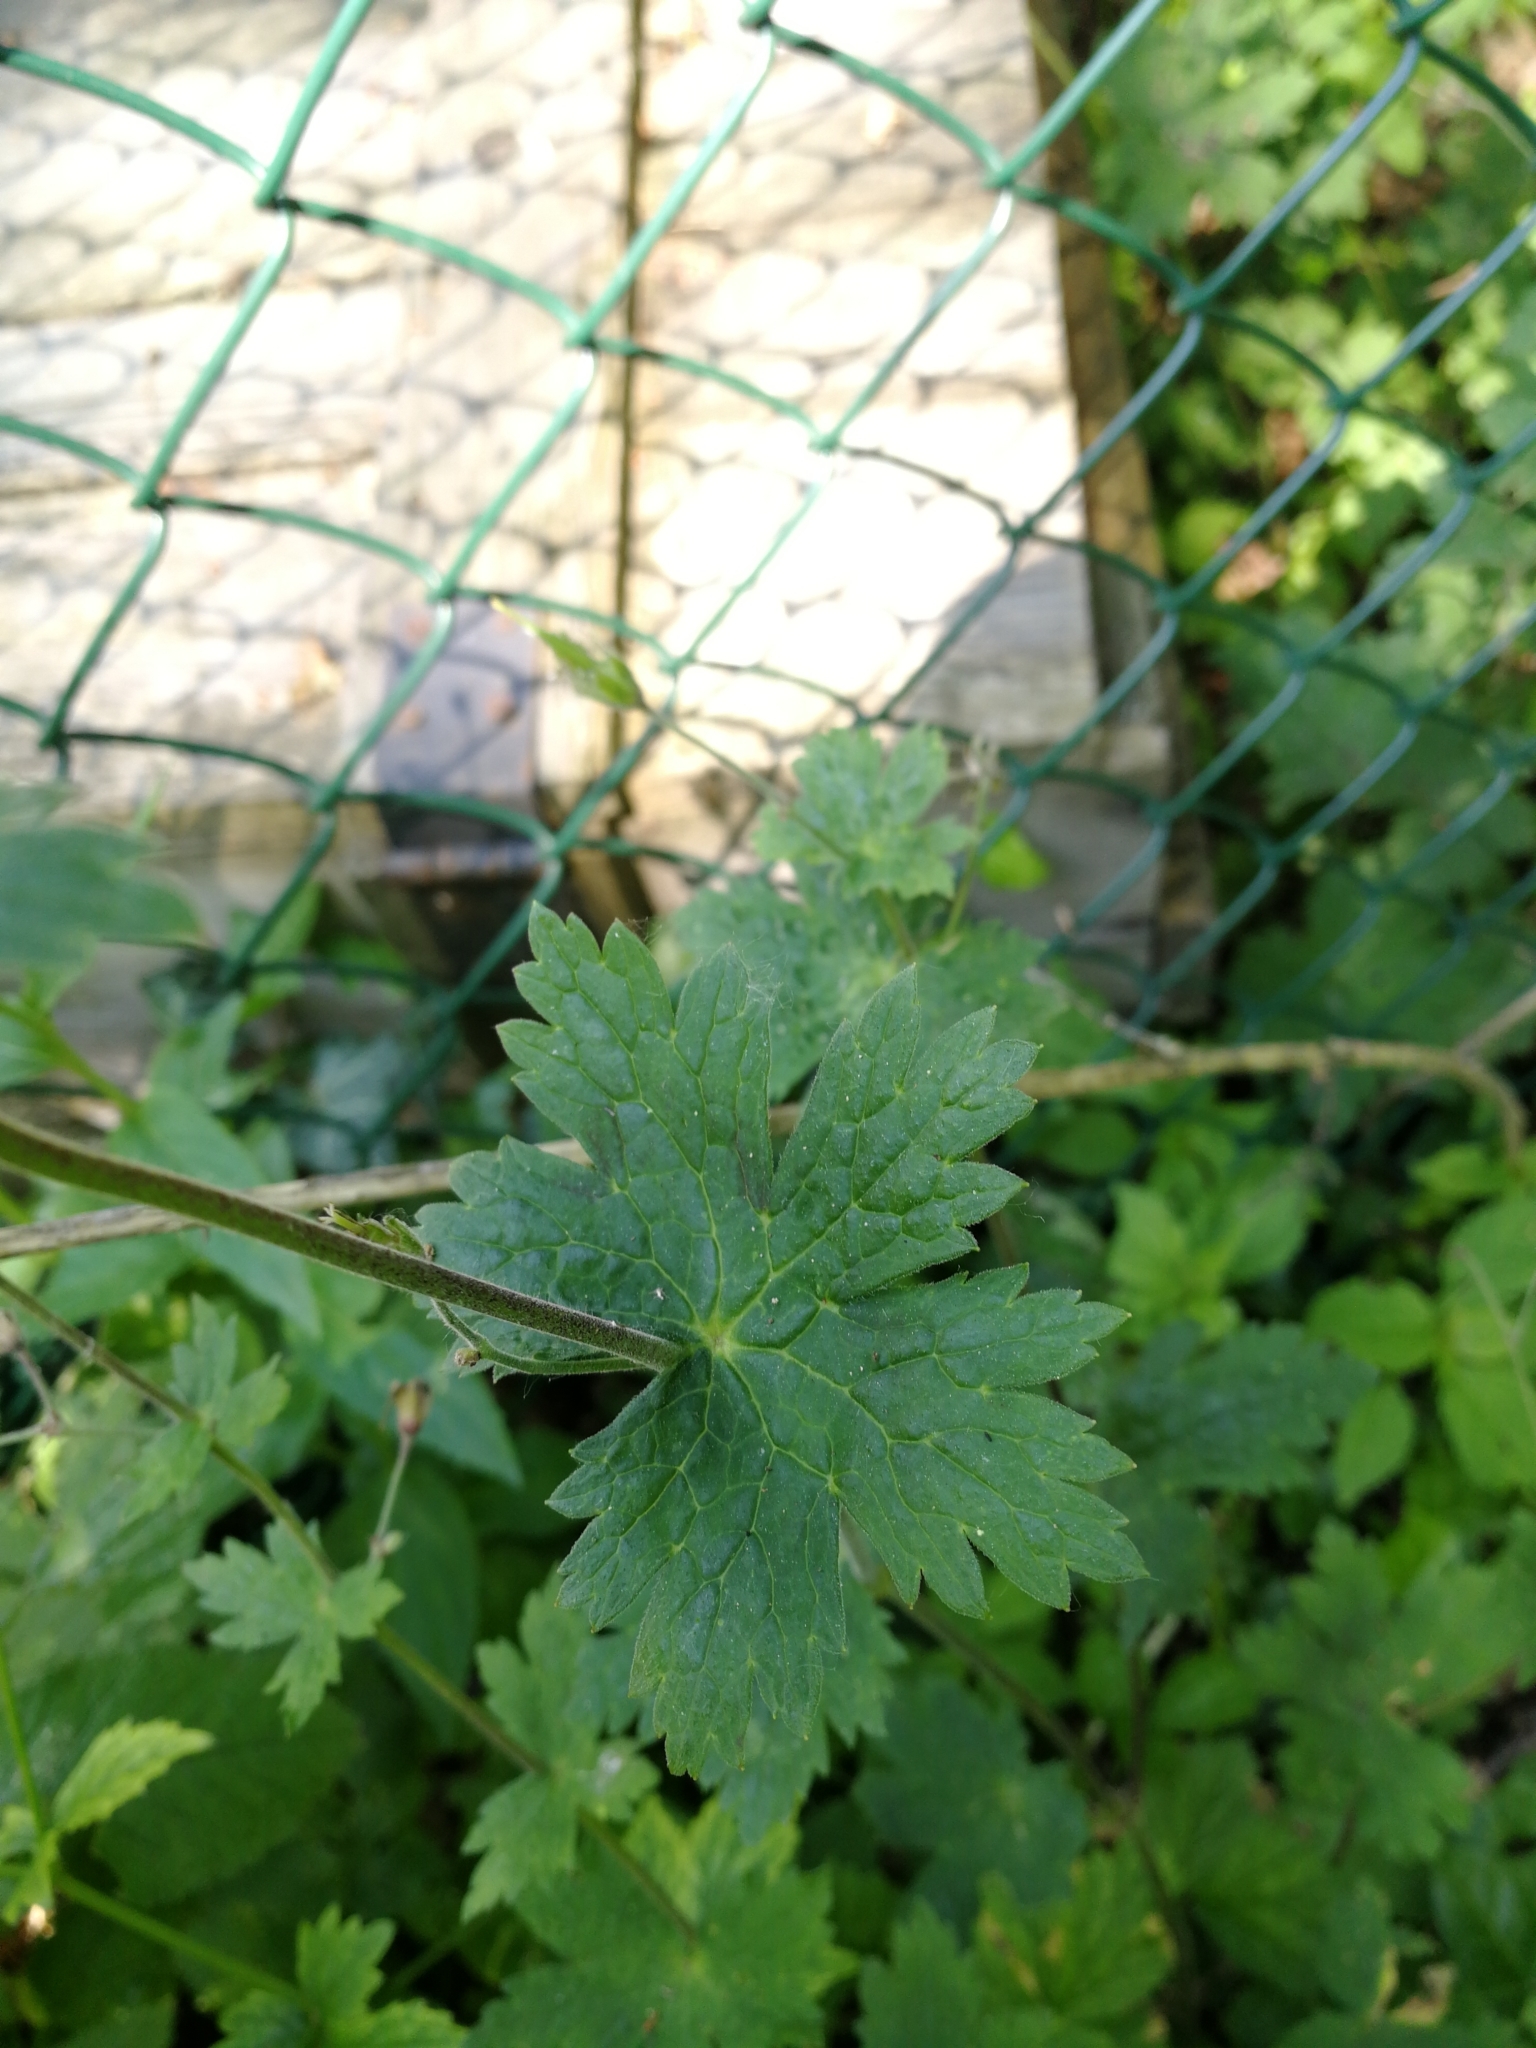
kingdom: Plantae
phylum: Tracheophyta
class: Magnoliopsida
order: Geraniales
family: Geraniaceae
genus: Geranium
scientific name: Geranium phaeum
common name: Dusky crane's-bill
